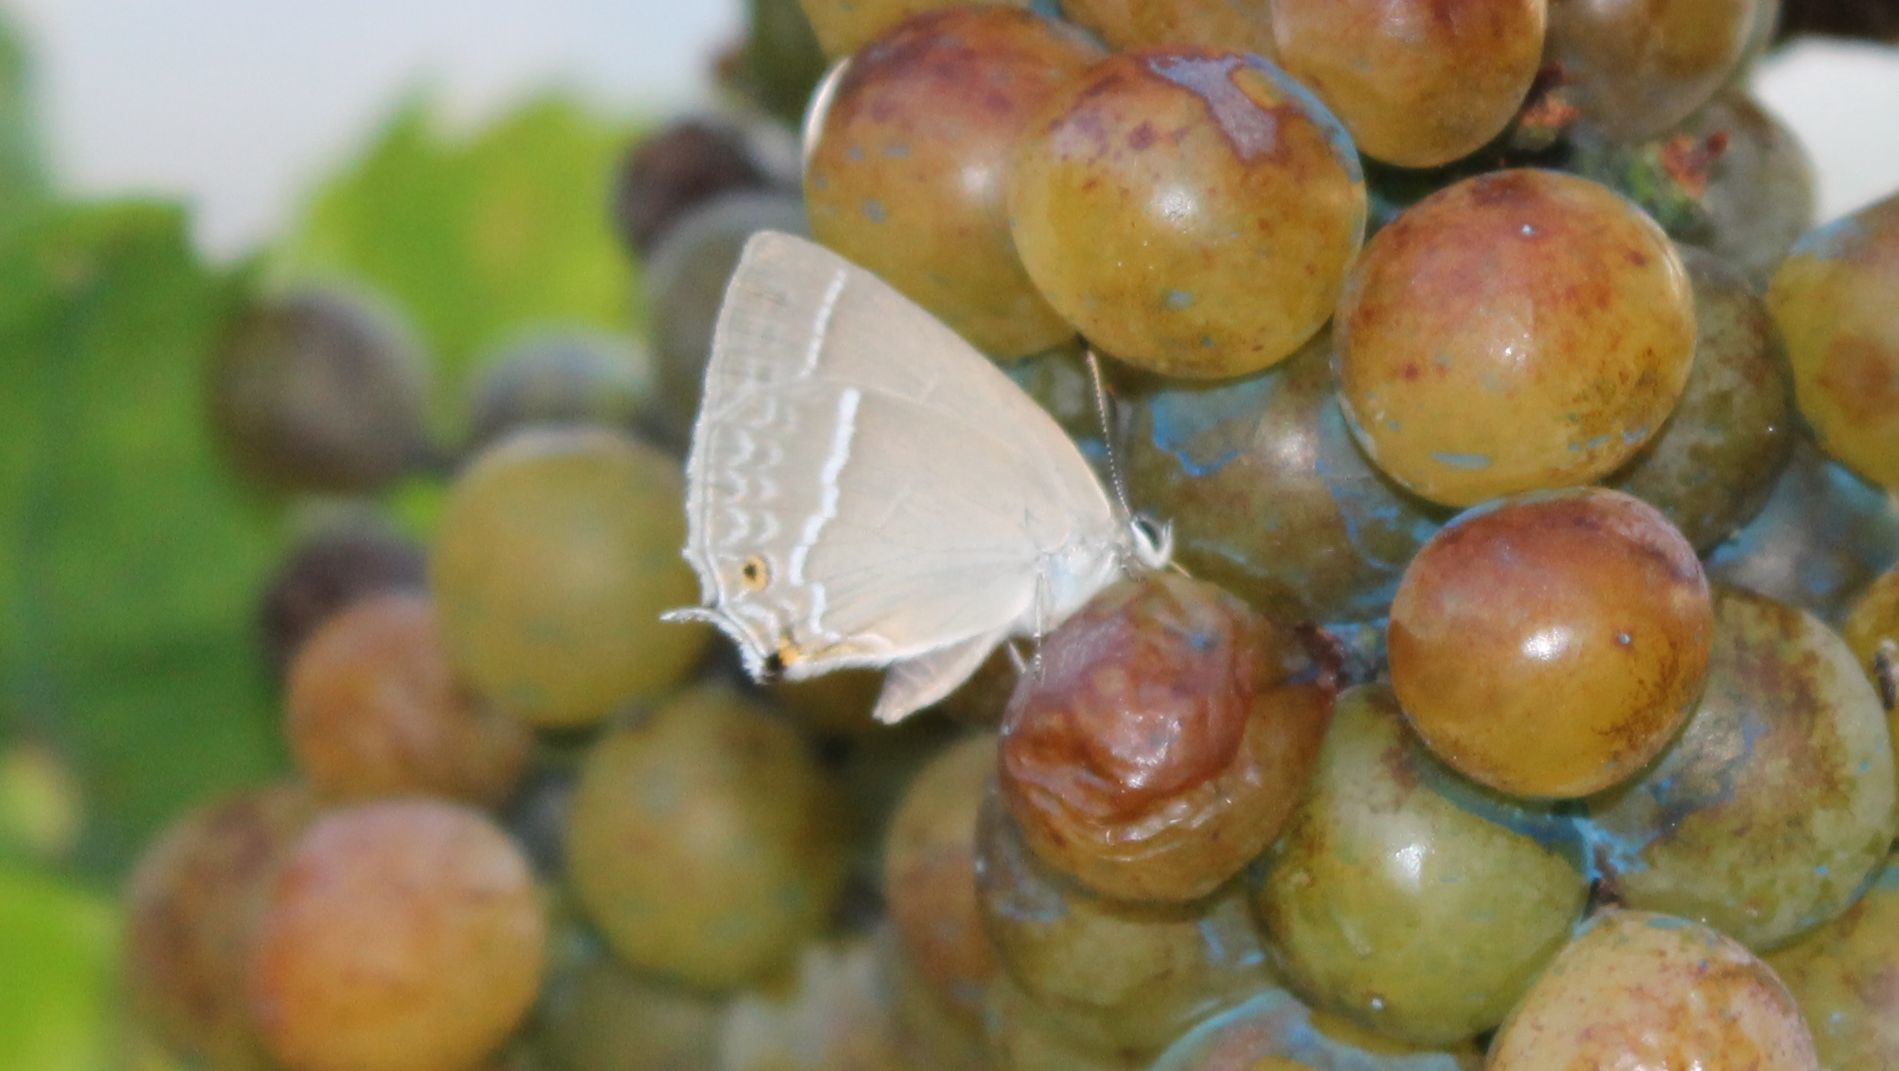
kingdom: Animalia
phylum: Arthropoda
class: Insecta
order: Lepidoptera
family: Lycaenidae
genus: Quercusia
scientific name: Quercusia quercus
